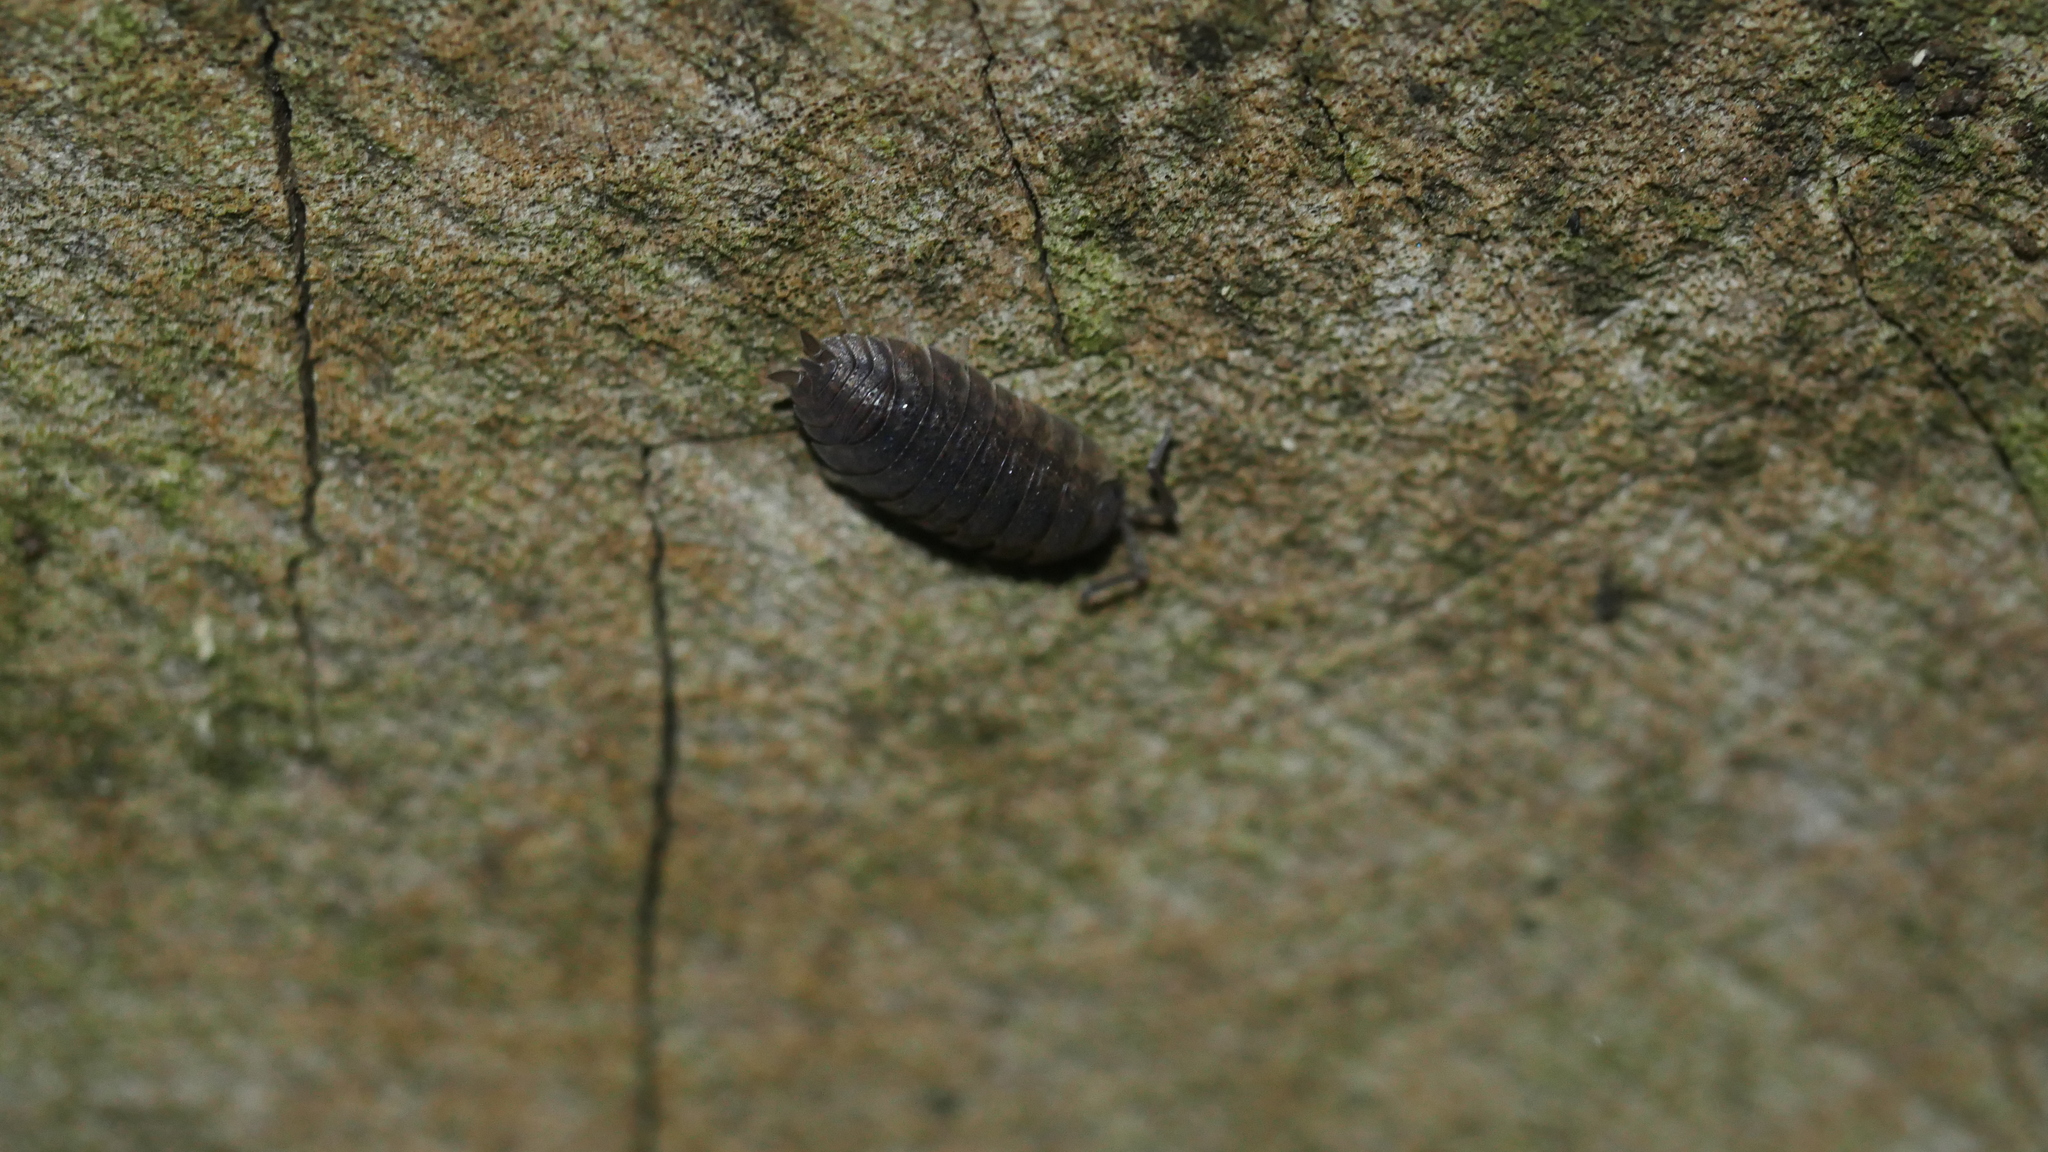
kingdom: Animalia
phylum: Arthropoda
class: Malacostraca
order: Isopoda
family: Porcellionidae
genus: Porcellio
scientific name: Porcellio scaber
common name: Common rough woodlouse
